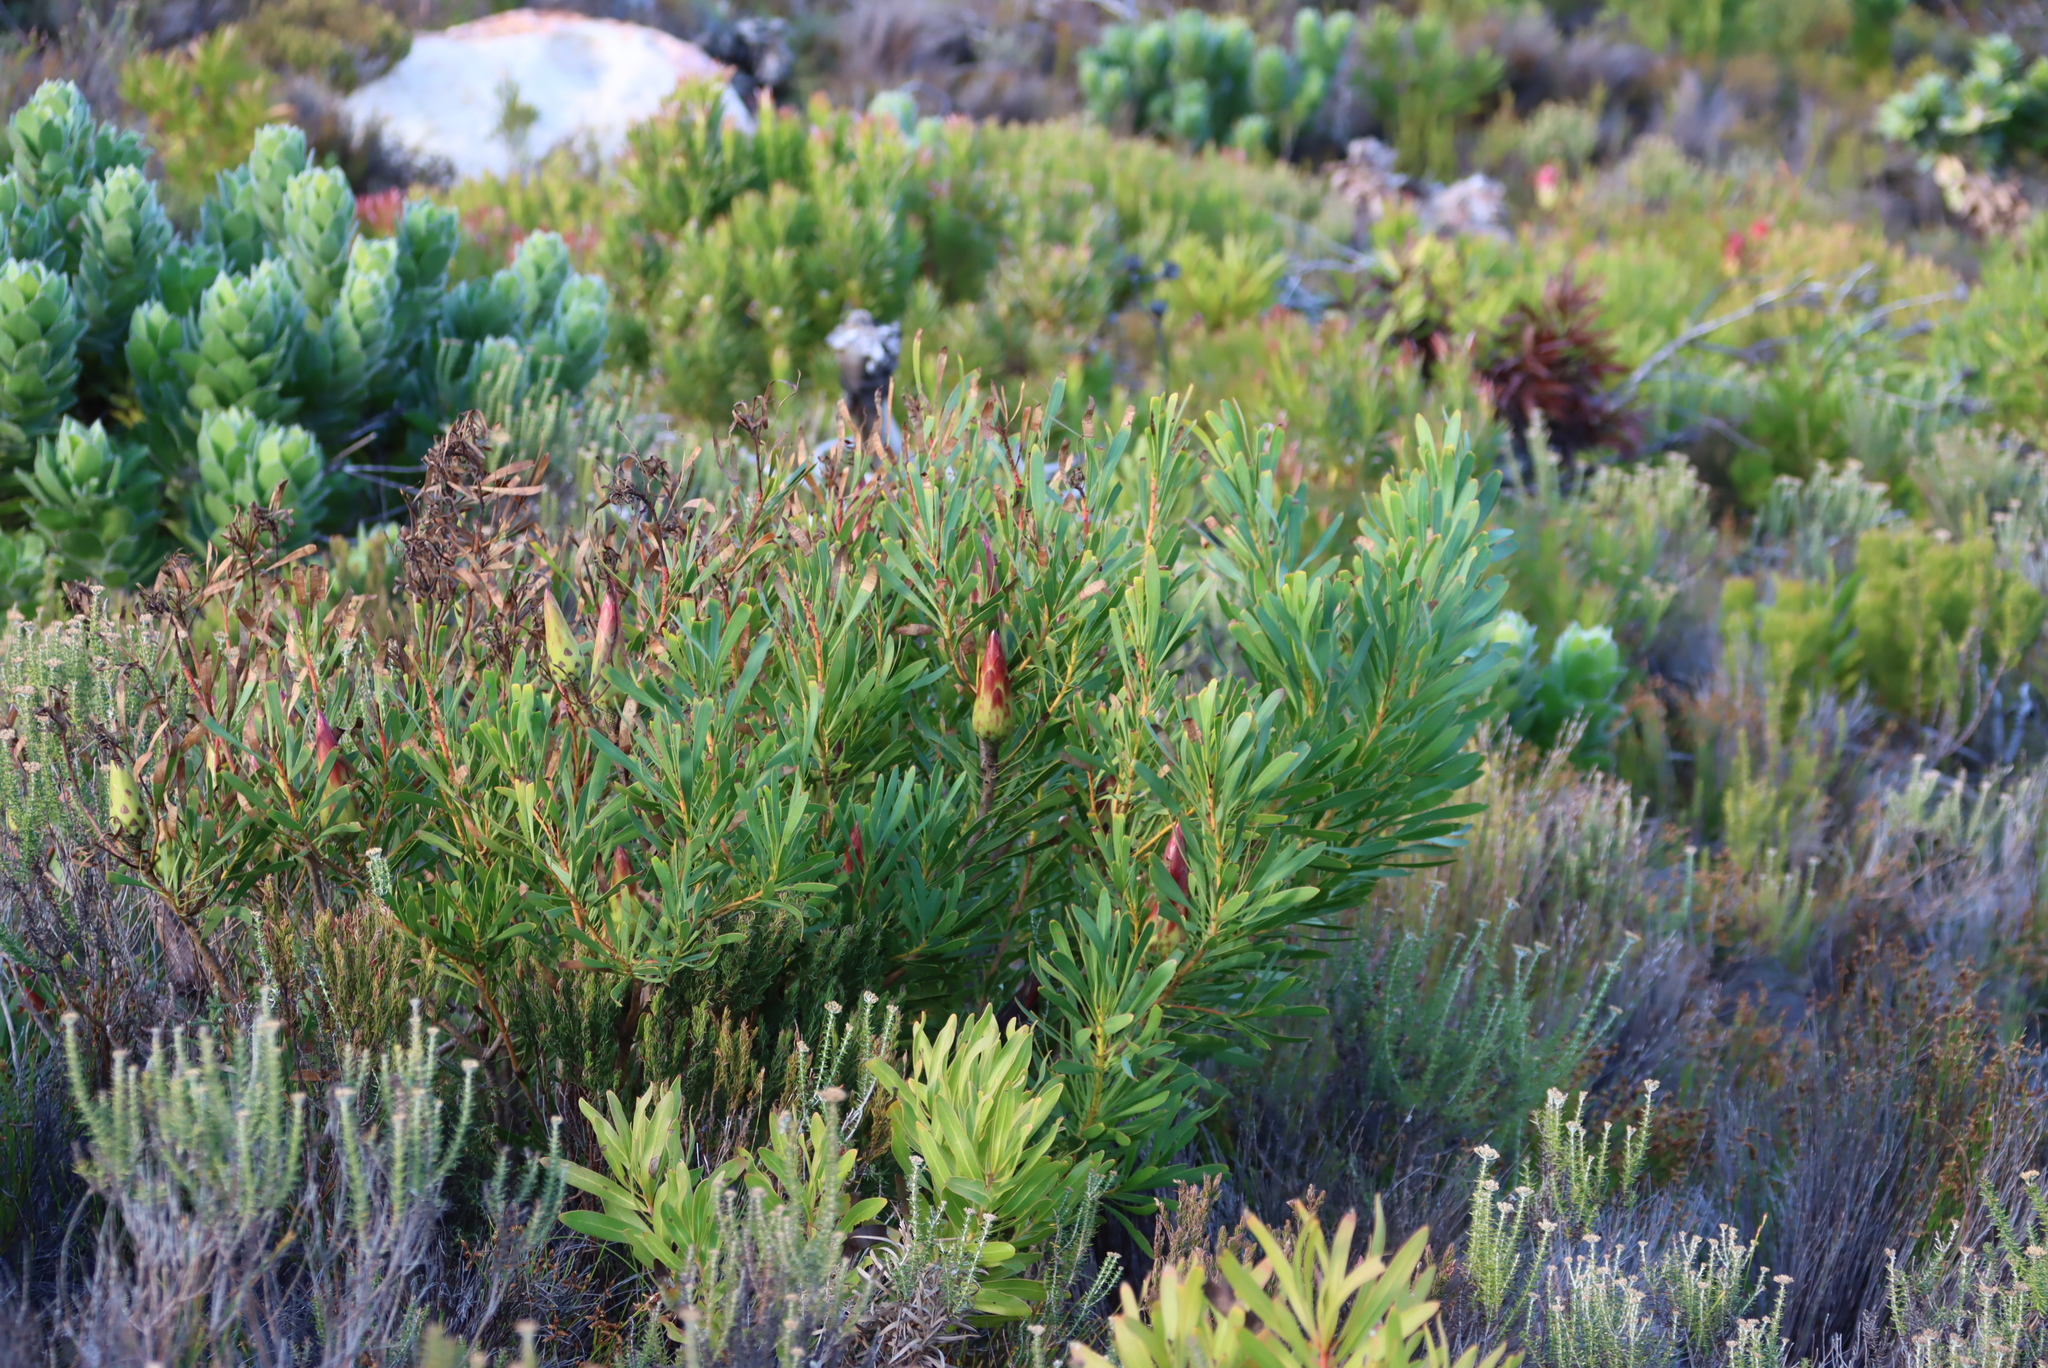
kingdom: Plantae
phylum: Tracheophyta
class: Magnoliopsida
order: Proteales
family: Proteaceae
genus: Protea
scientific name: Protea repens
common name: Sugarbush
